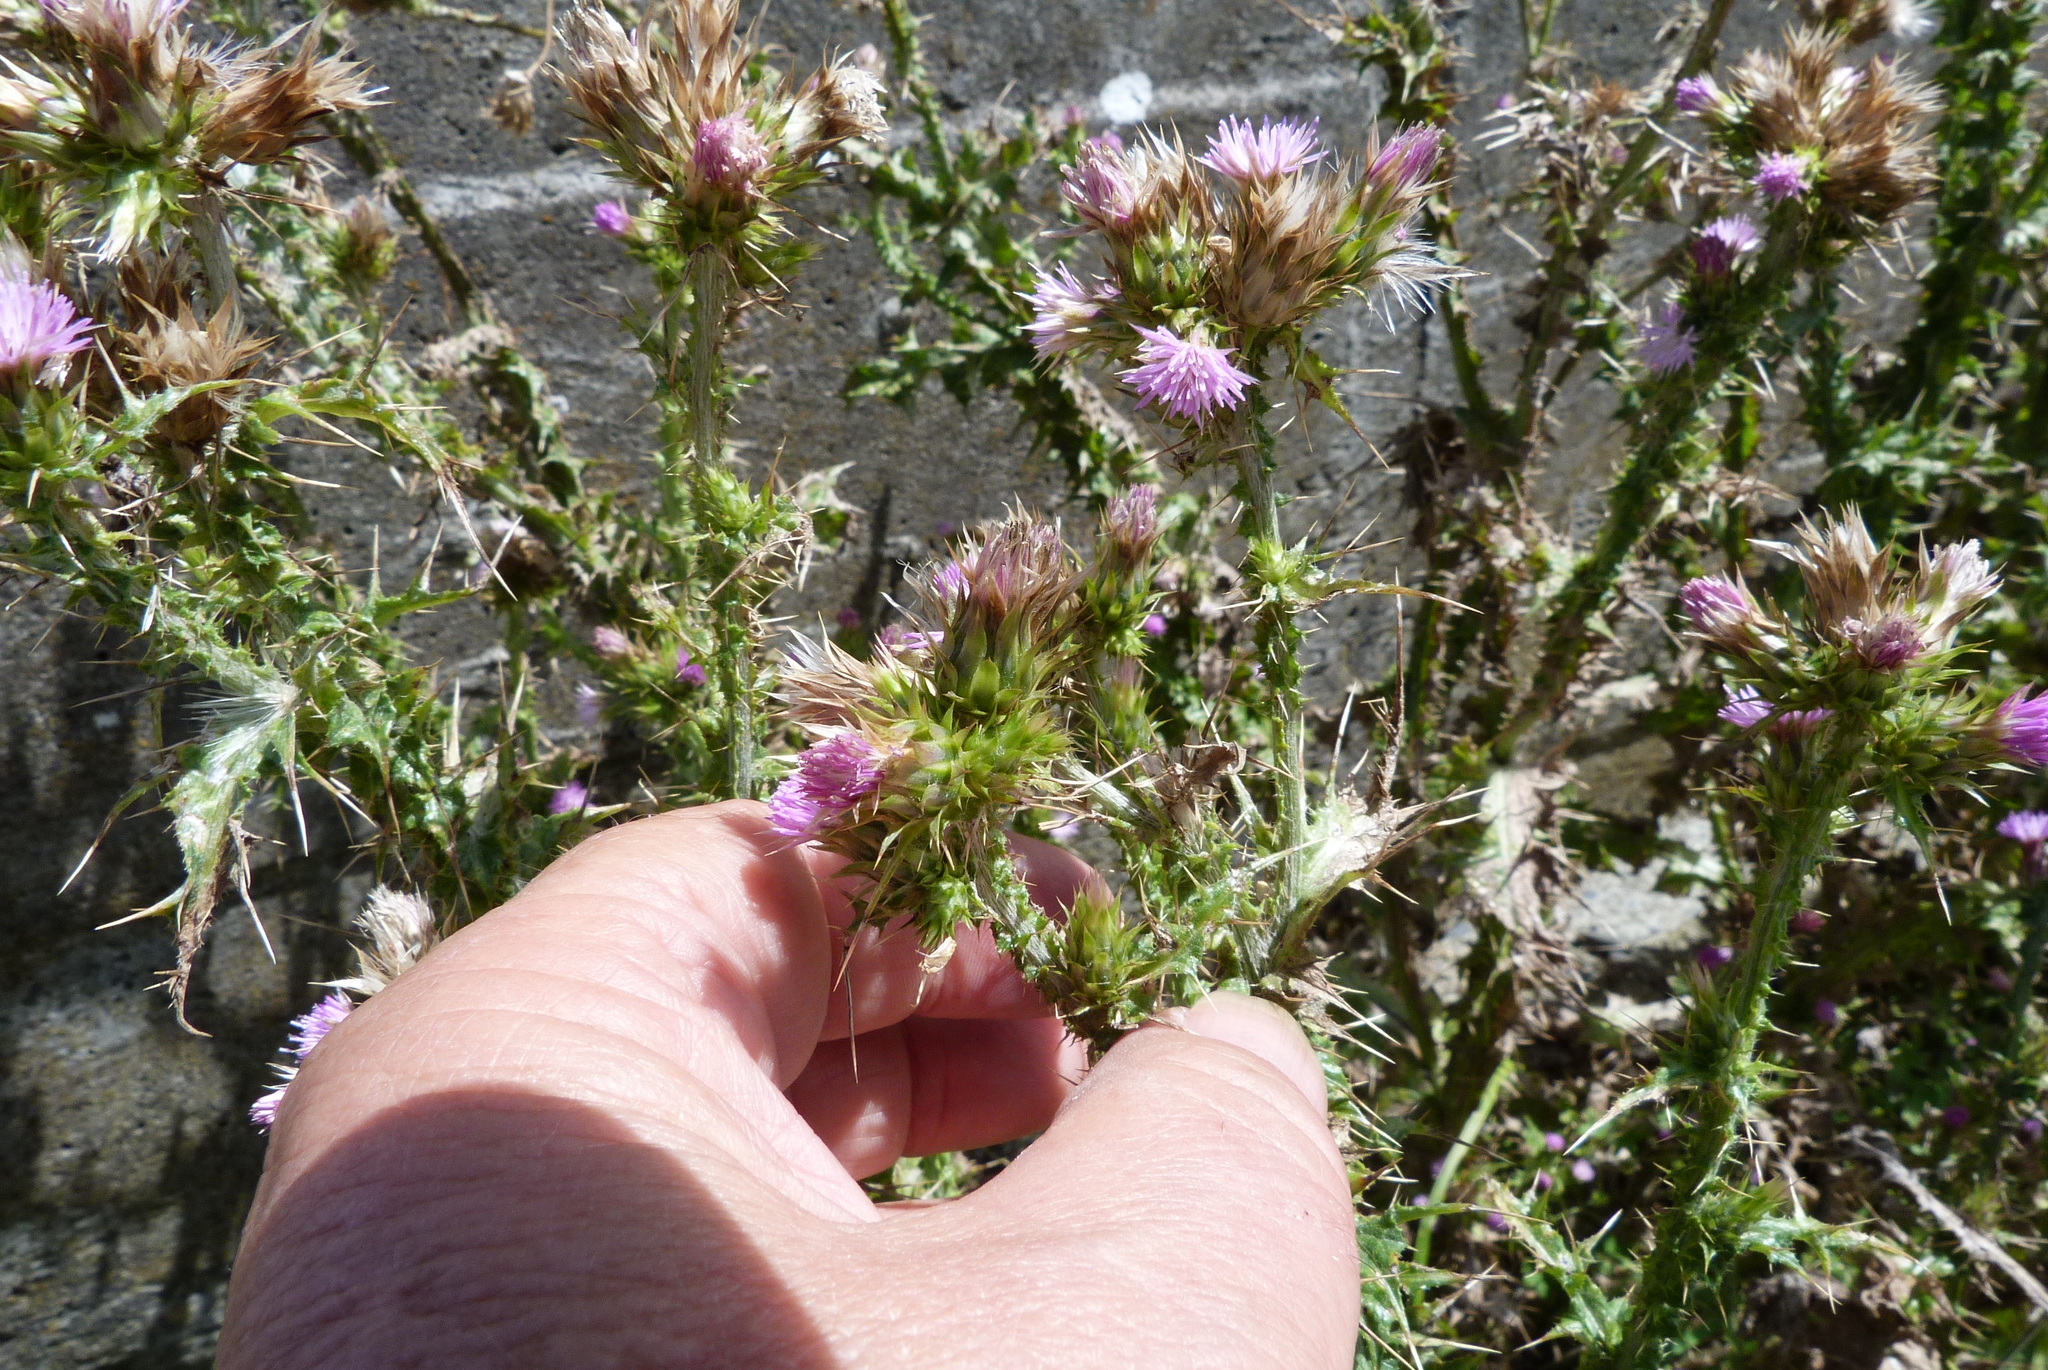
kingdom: Plantae
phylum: Tracheophyta
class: Magnoliopsida
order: Asterales
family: Asteraceae
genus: Carduus
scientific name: Carduus tenuiflorus
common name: Slender thistle
